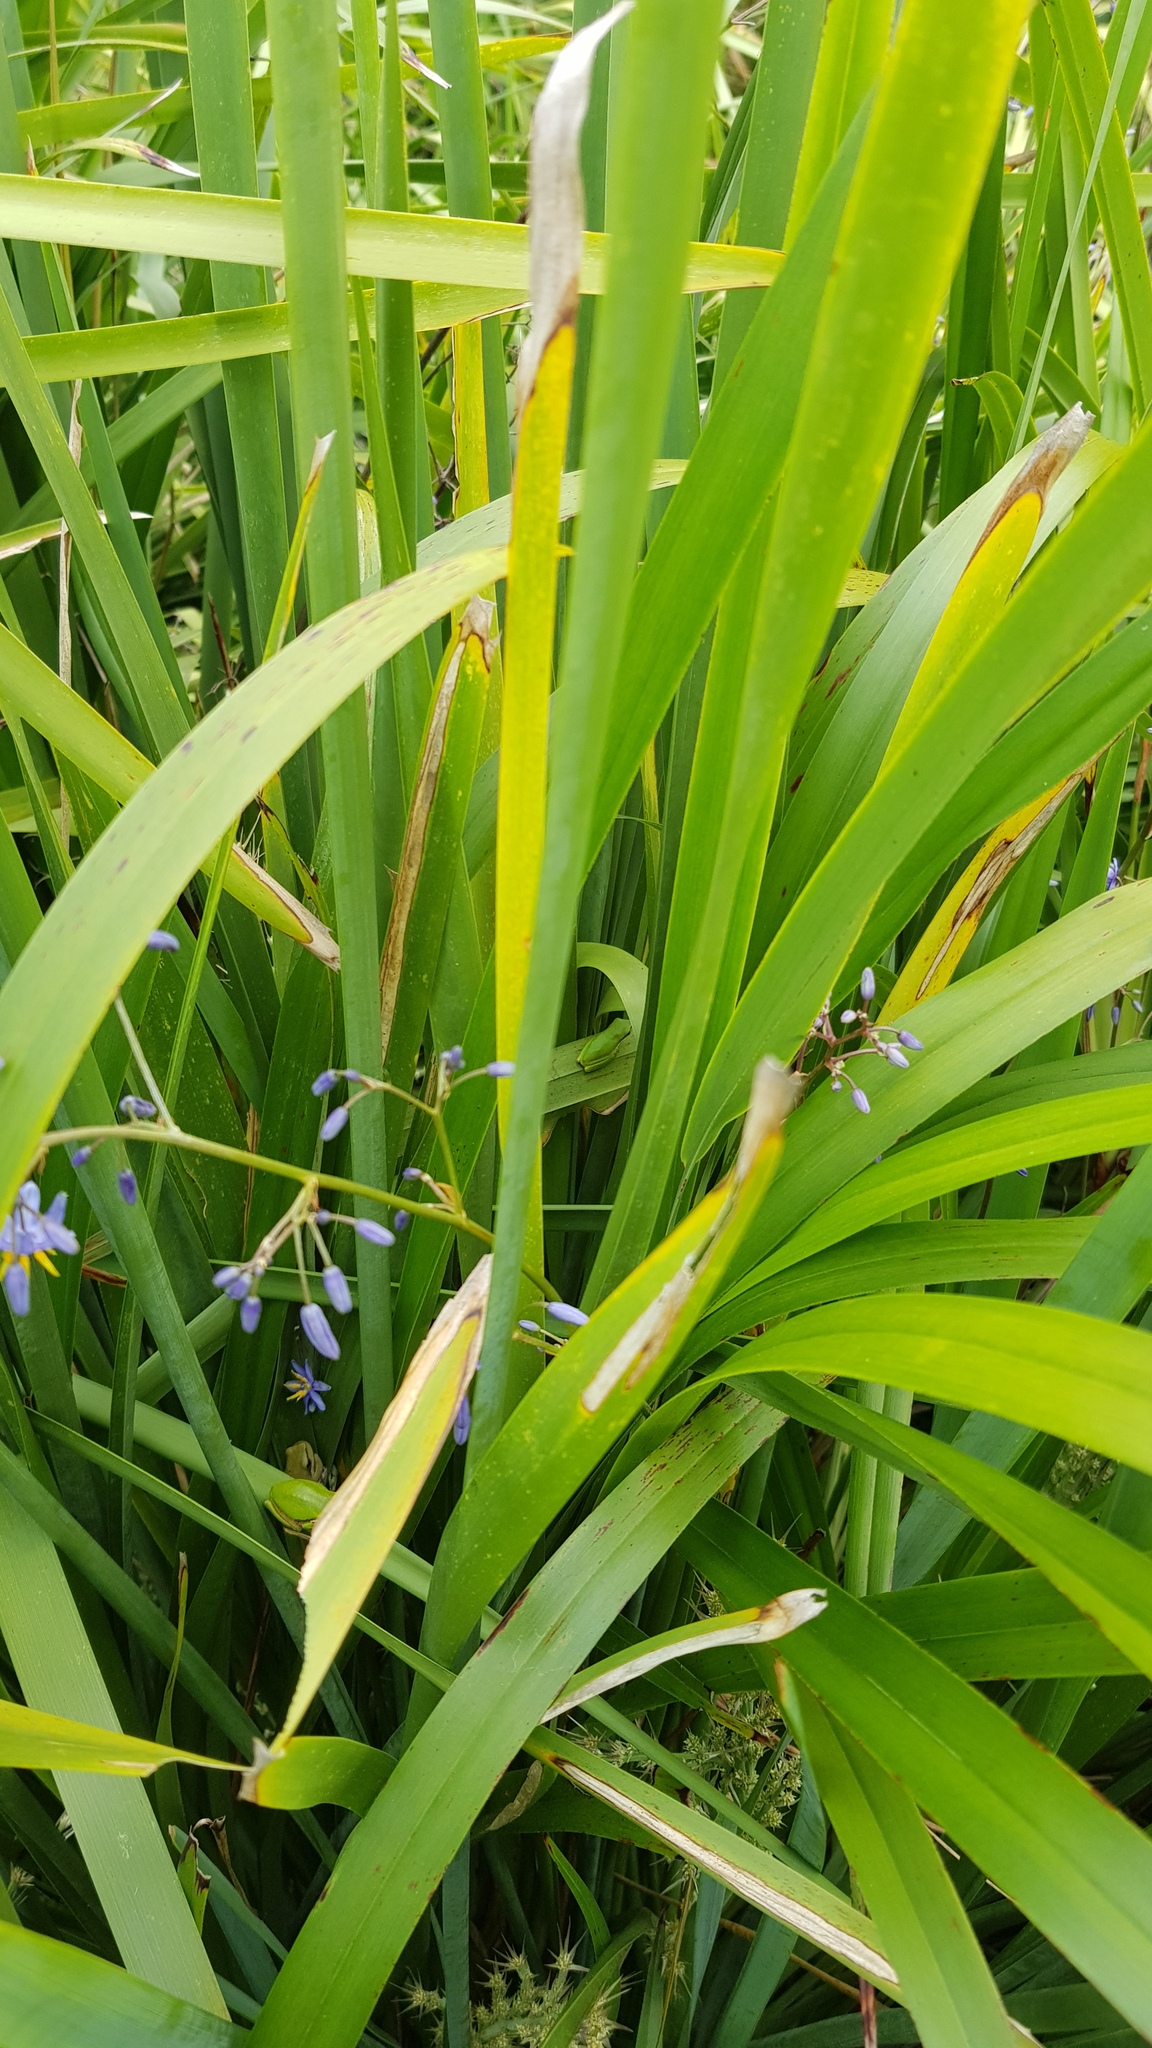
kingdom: Animalia
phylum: Chordata
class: Amphibia
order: Anura
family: Pelodryadidae
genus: Litoria
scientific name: Litoria fallax
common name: Eastern dwarf treefrog
